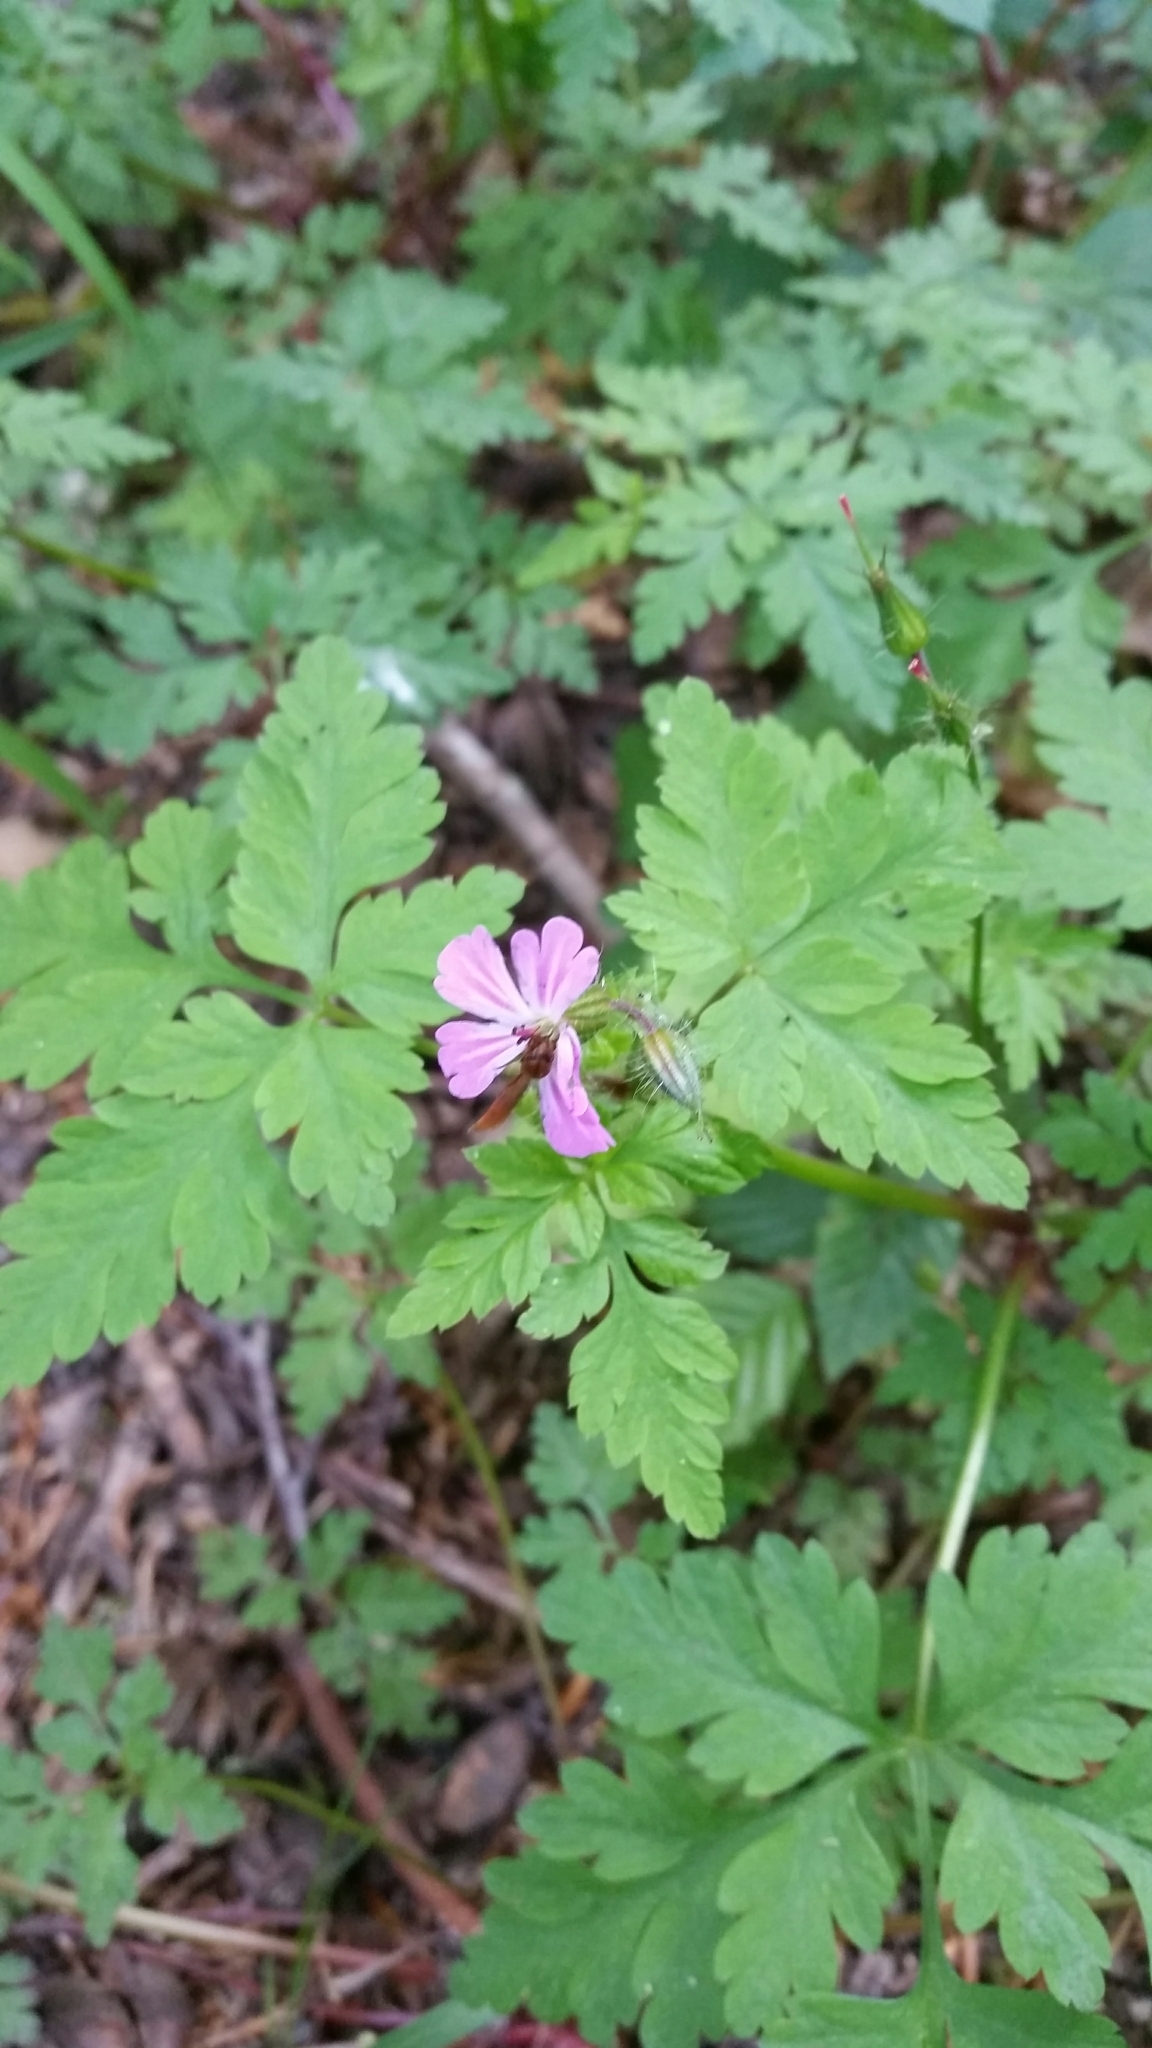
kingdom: Plantae
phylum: Tracheophyta
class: Magnoliopsida
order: Geraniales
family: Geraniaceae
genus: Geranium
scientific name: Geranium robertianum
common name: Herb-robert
